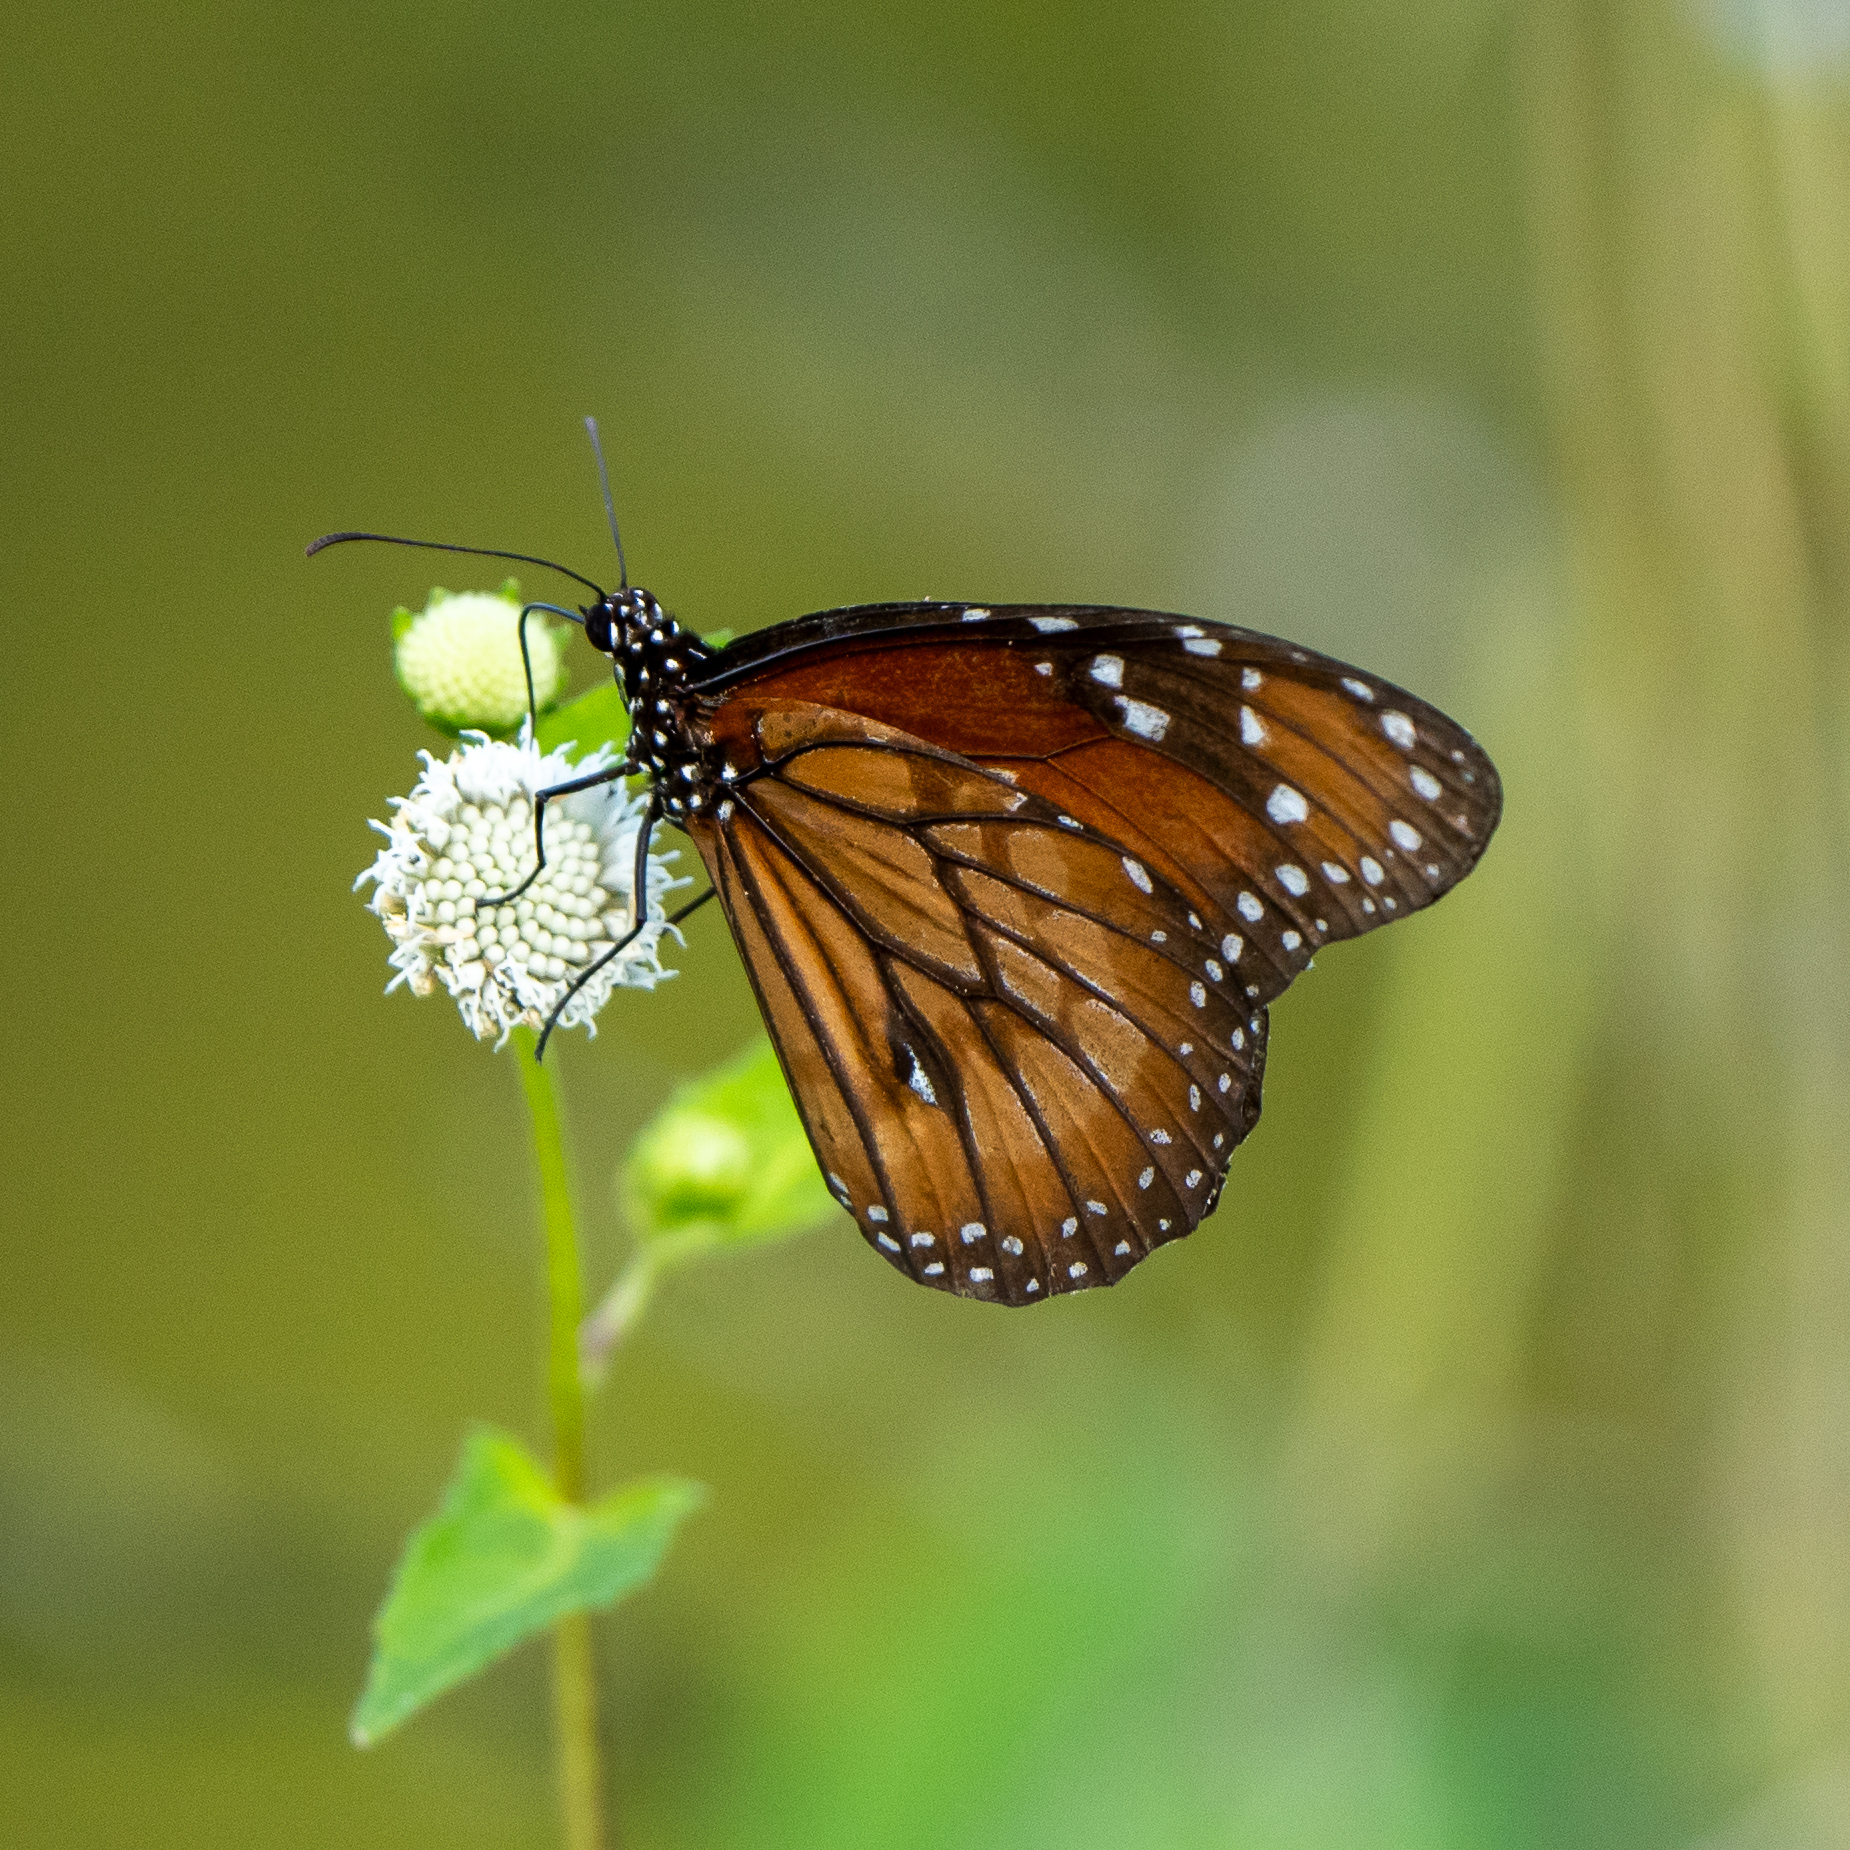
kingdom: Animalia
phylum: Arthropoda
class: Insecta
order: Lepidoptera
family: Nymphalidae
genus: Danaus
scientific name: Danaus eresimus
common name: Soldier
